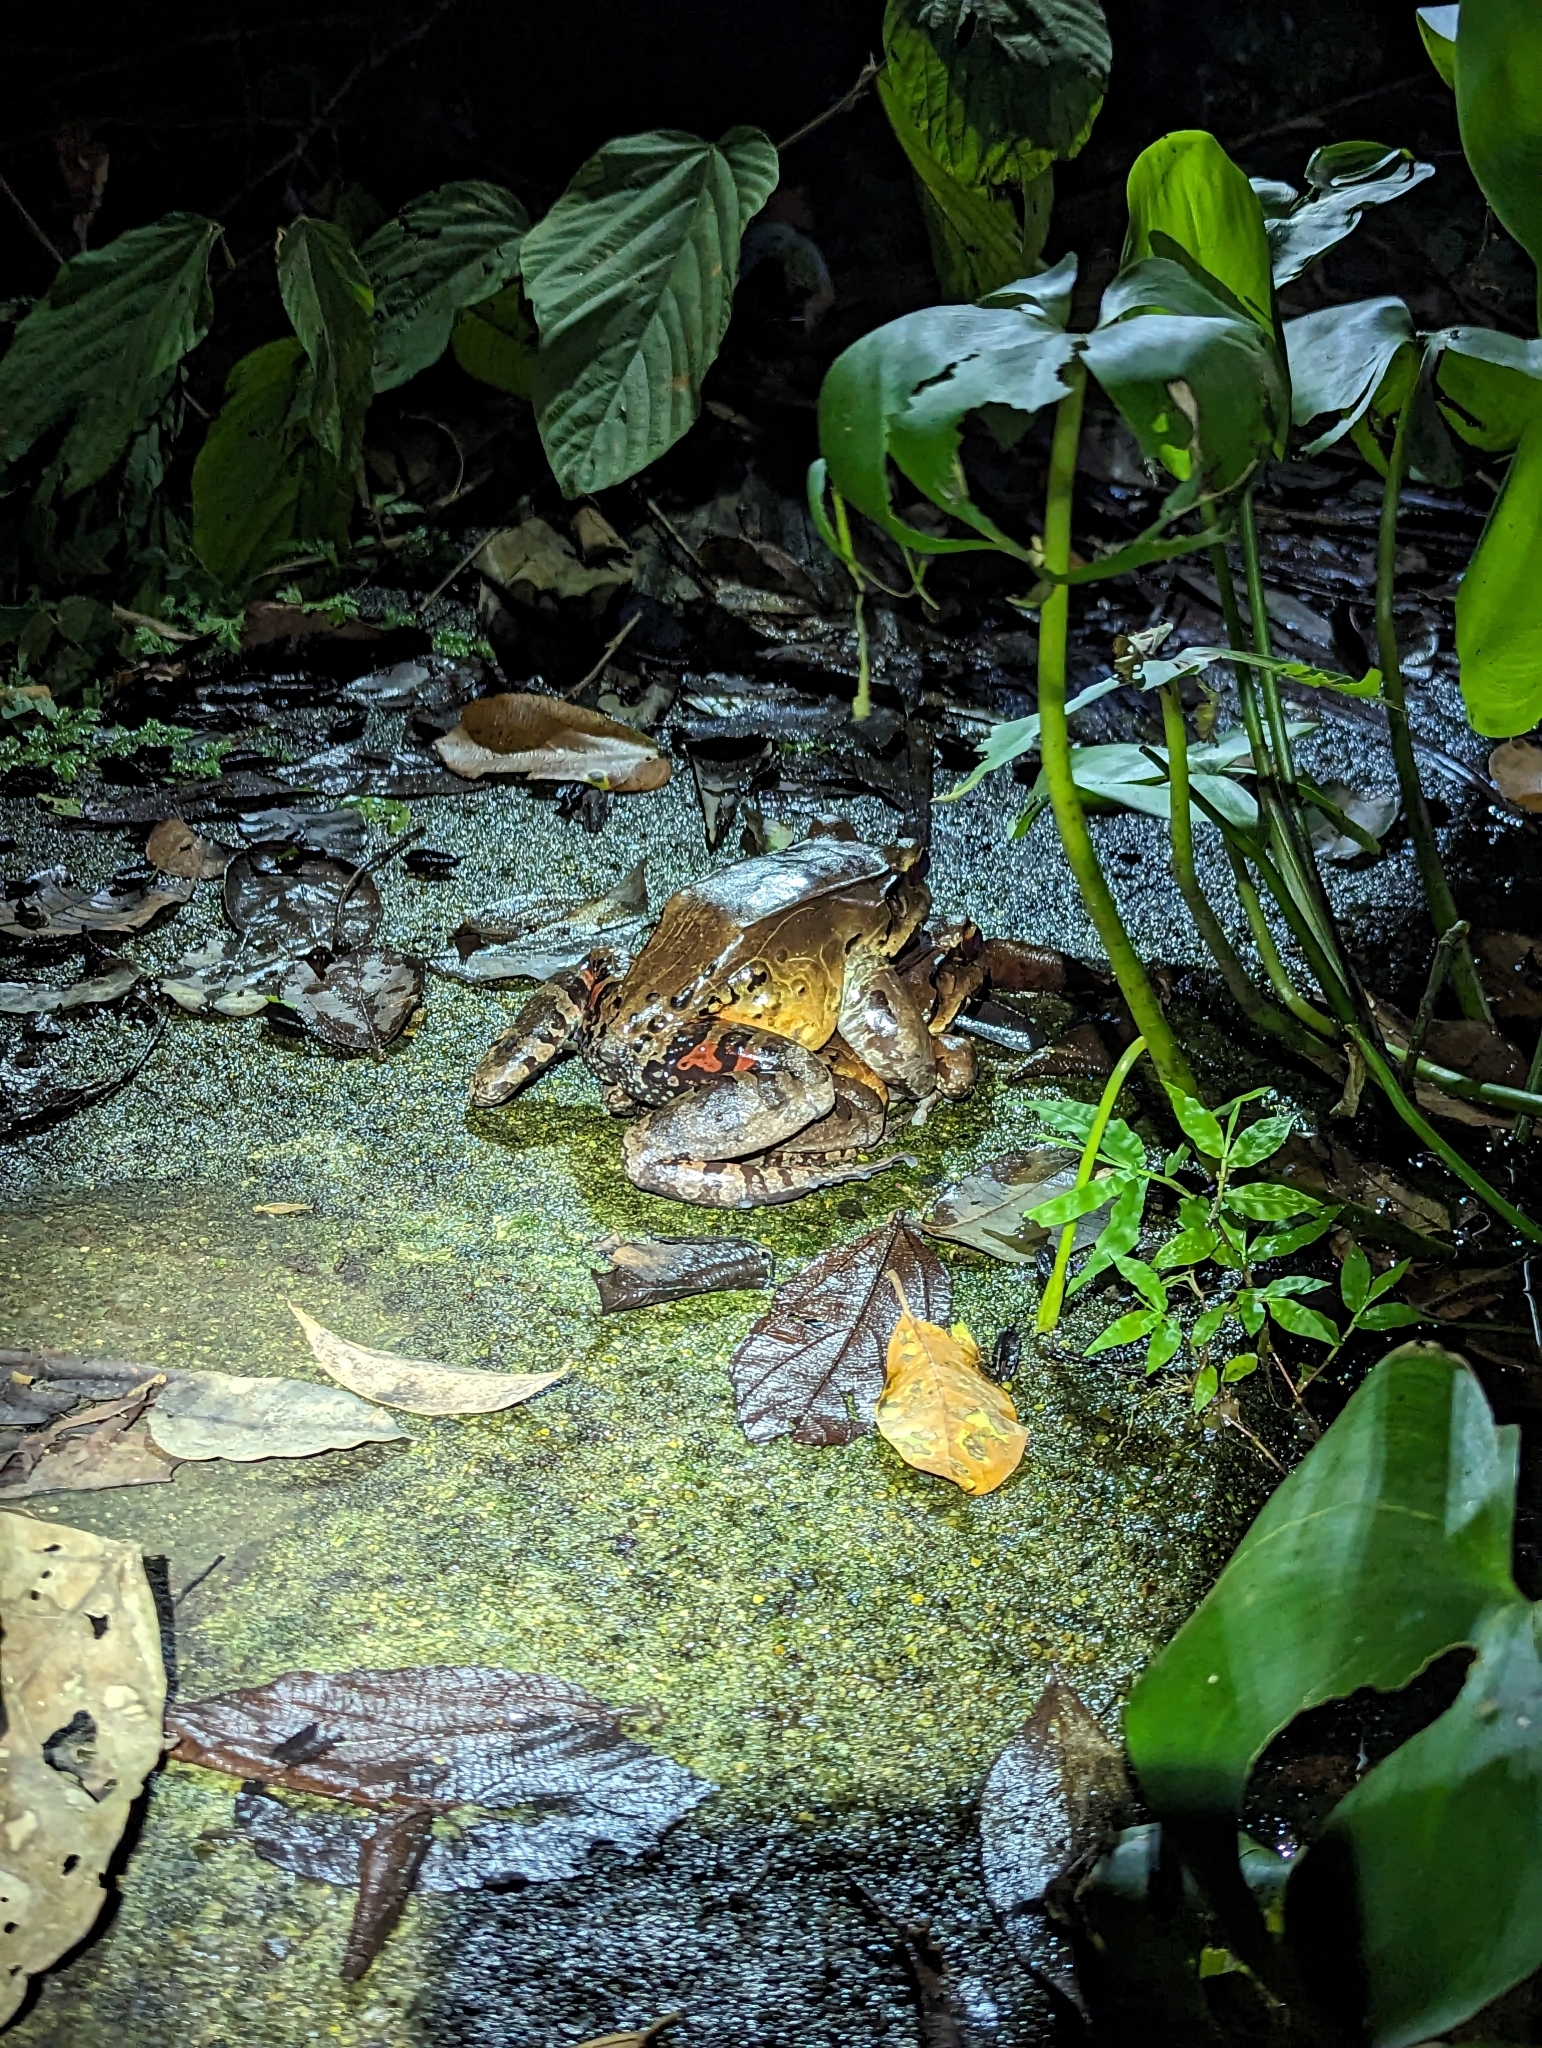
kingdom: Animalia
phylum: Chordata
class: Amphibia
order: Anura
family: Leptodactylidae
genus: Leptodactylus
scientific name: Leptodactylus savagei
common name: Savage's thin-toed frog
